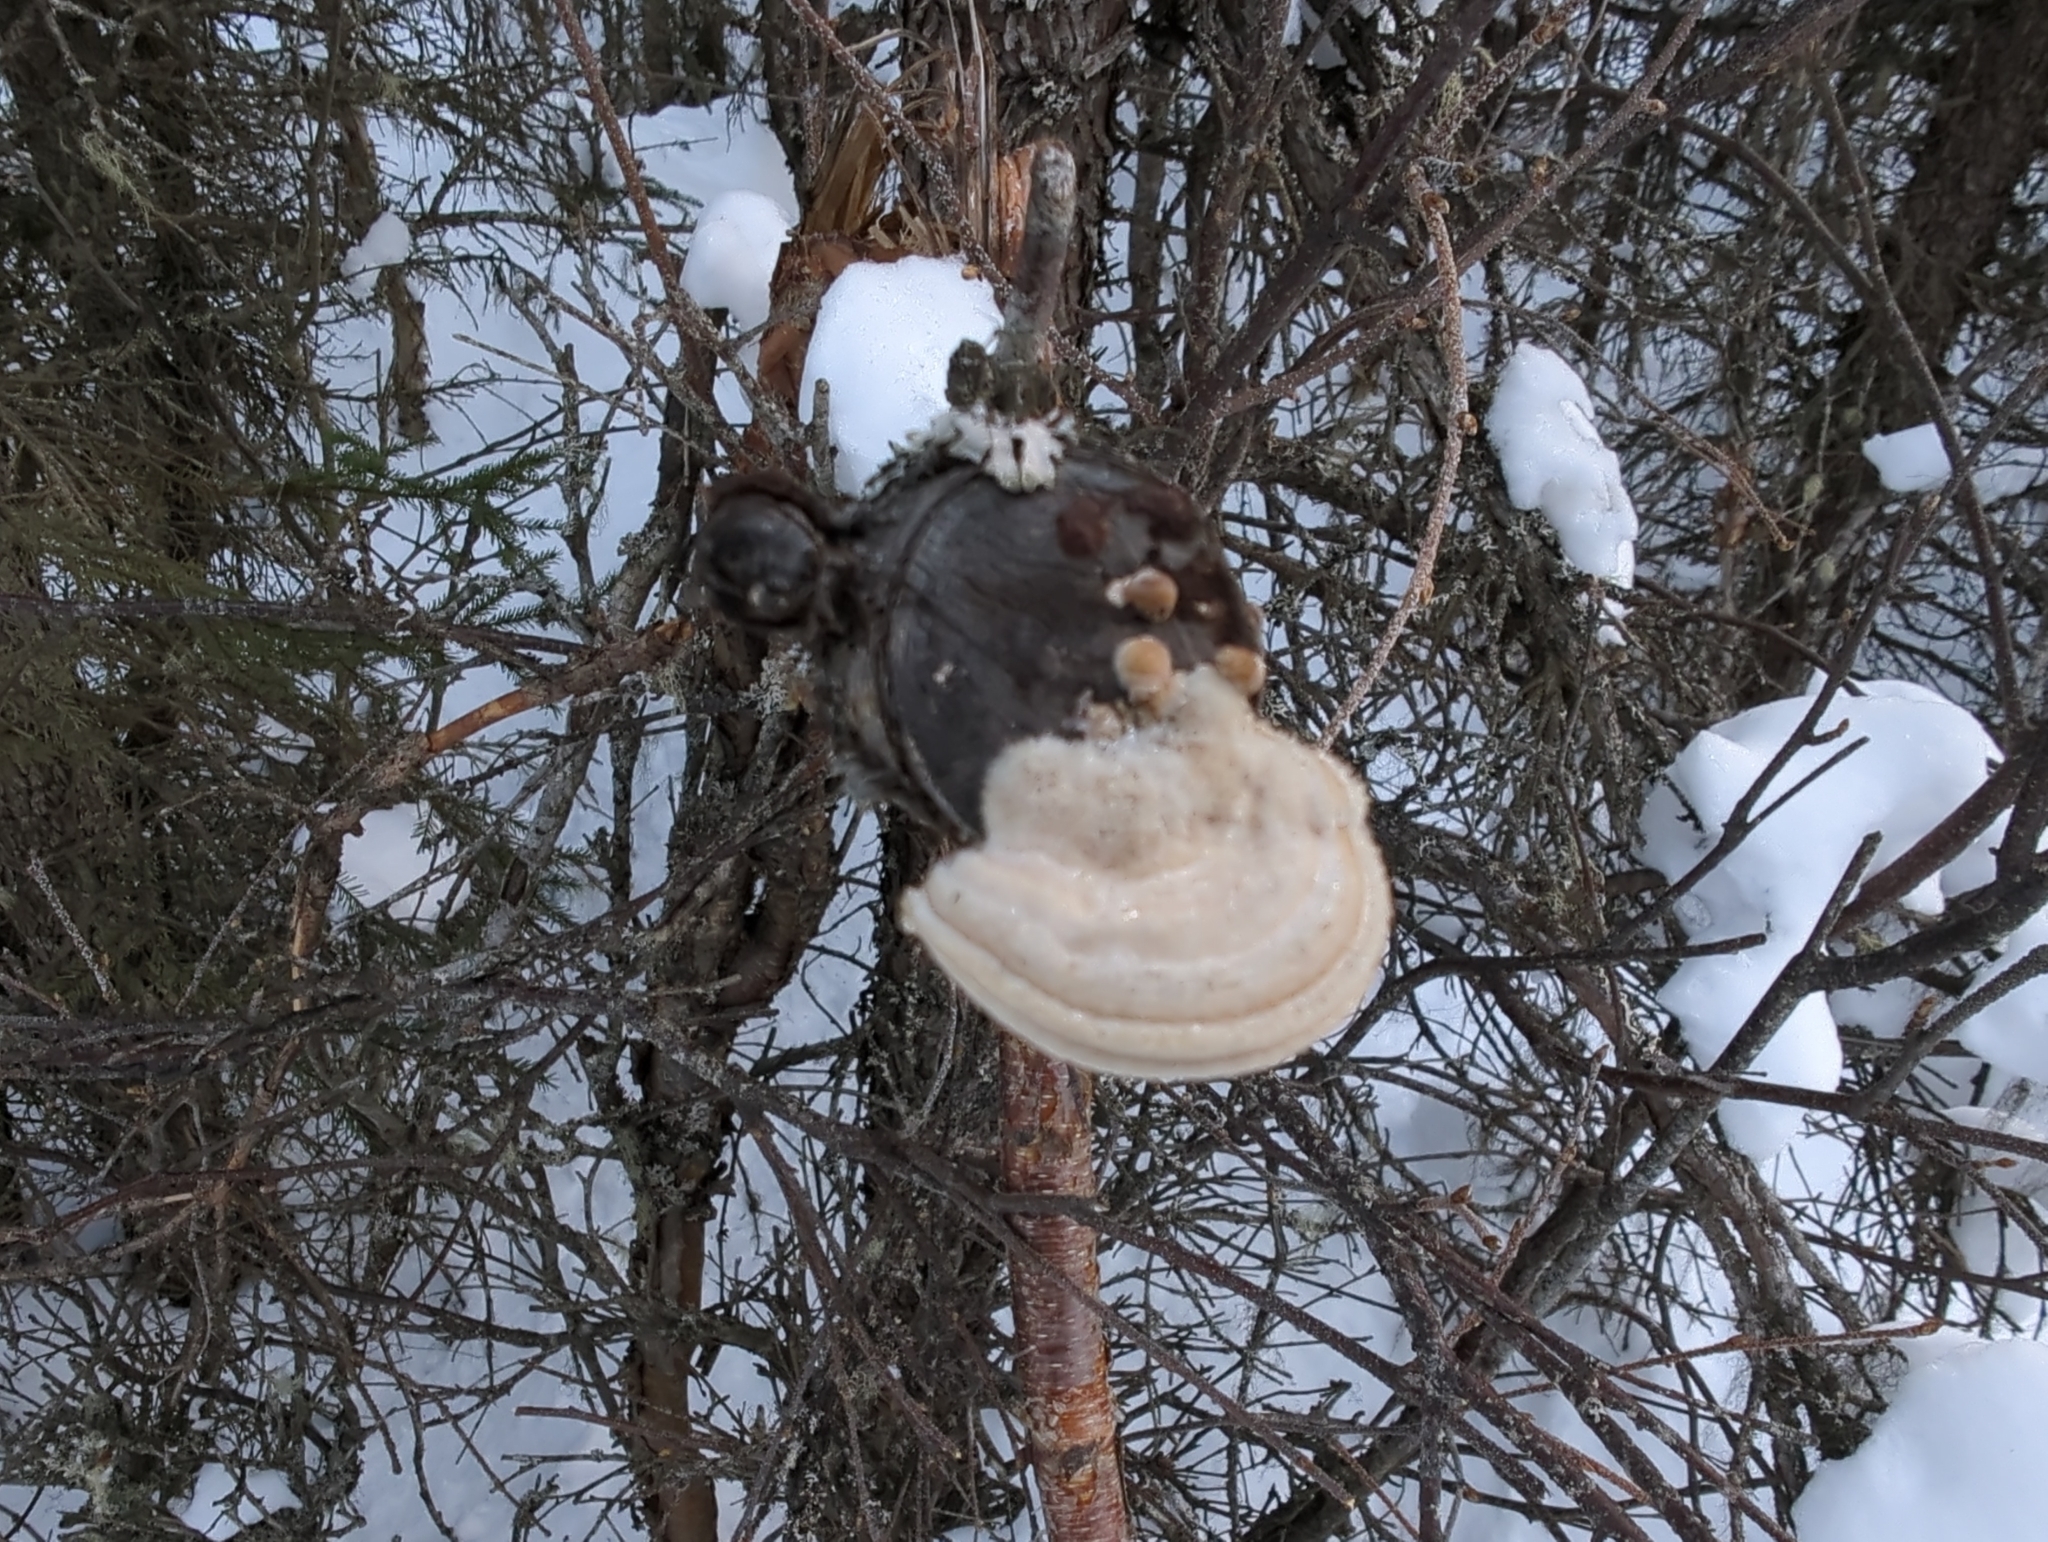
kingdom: Fungi
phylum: Basidiomycota
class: Agaricomycetes
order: Polyporales
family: Polyporaceae
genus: Lenzites
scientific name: Lenzites betulinus
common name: Birch mazegill
